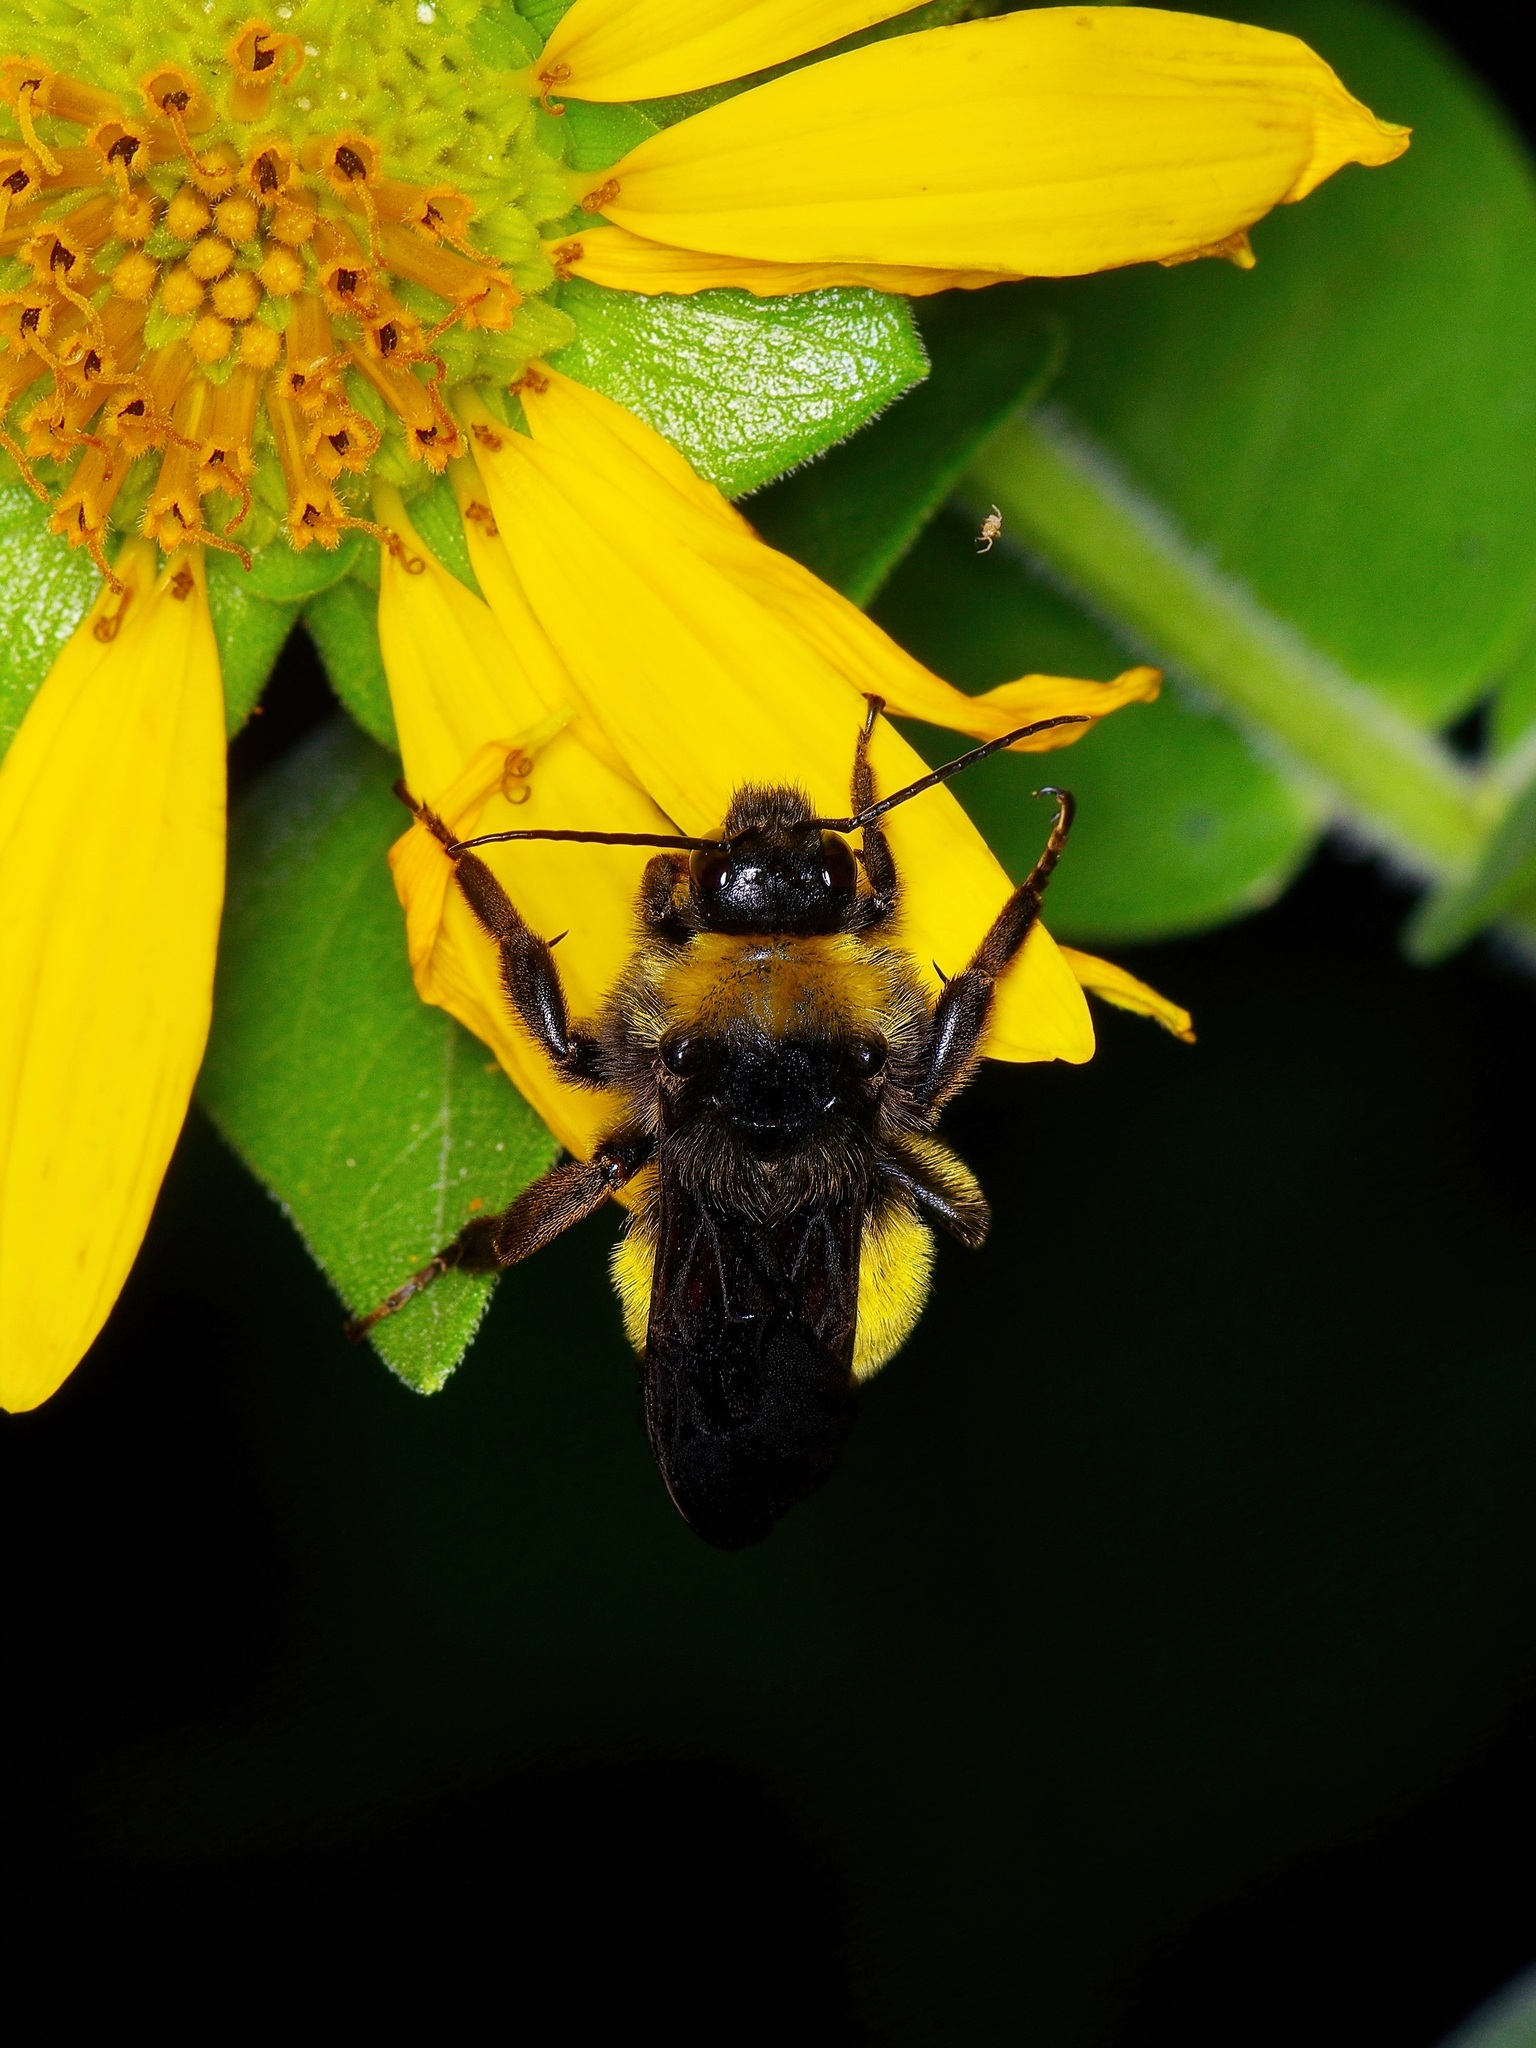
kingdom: Animalia
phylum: Arthropoda
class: Insecta
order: Hymenoptera
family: Apidae
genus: Bombus
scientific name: Bombus pensylvanicus
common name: Bumble bee
